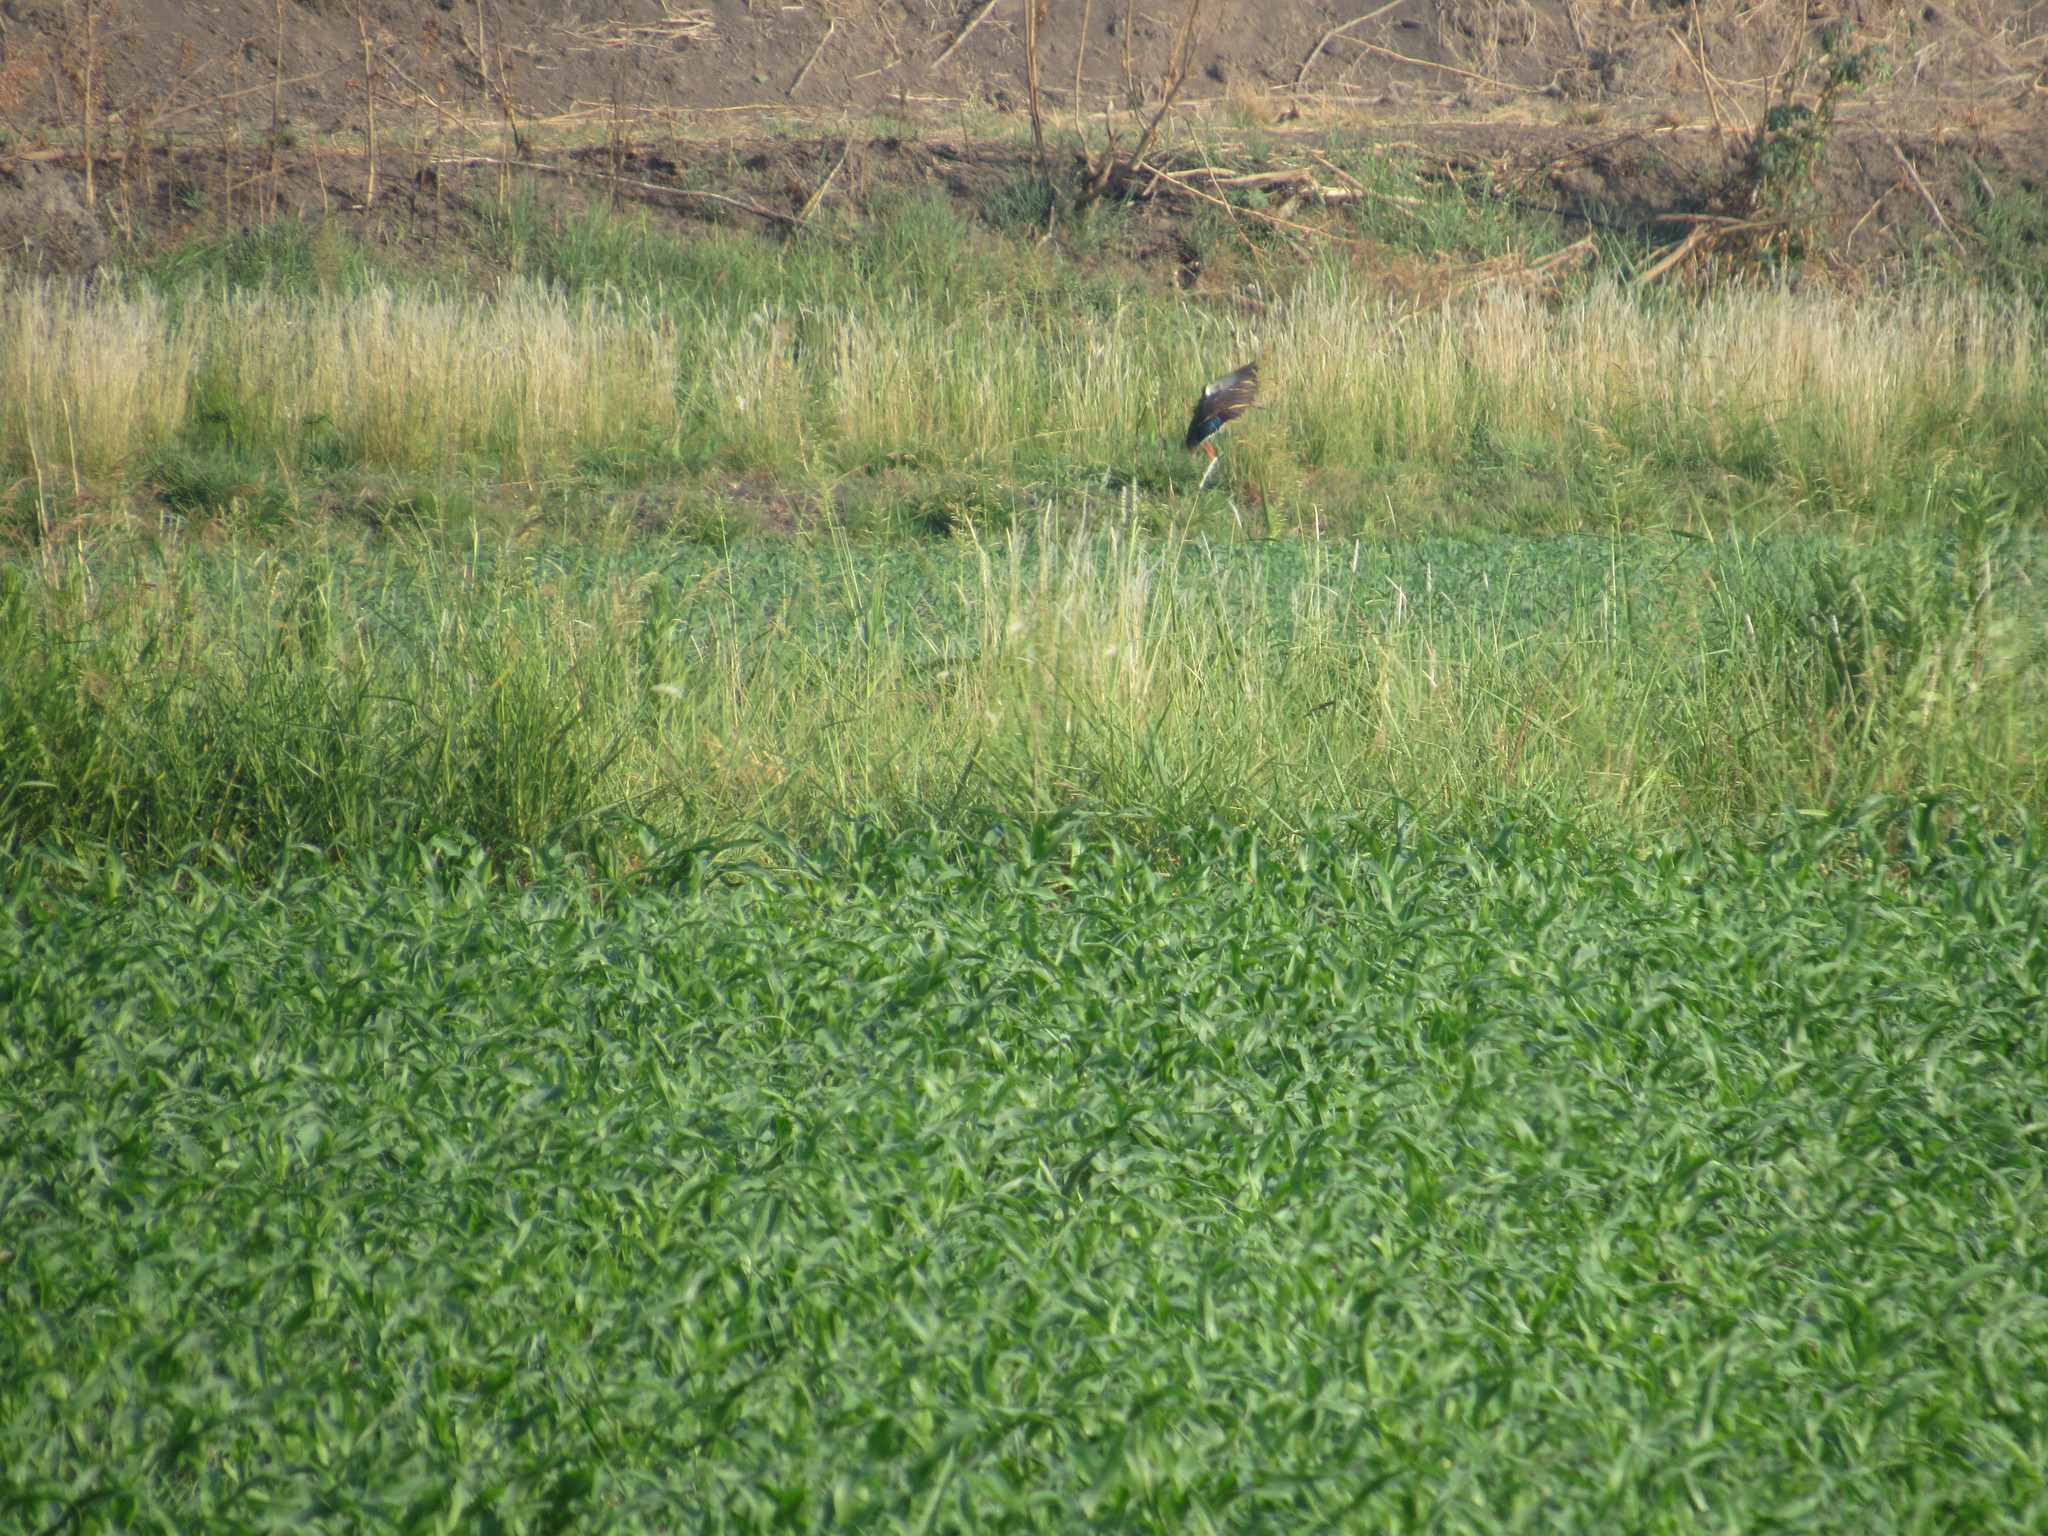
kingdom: Animalia
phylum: Chordata
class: Aves
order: Anseriformes
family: Anatidae
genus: Anas
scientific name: Anas diazi
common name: Mexican duck
